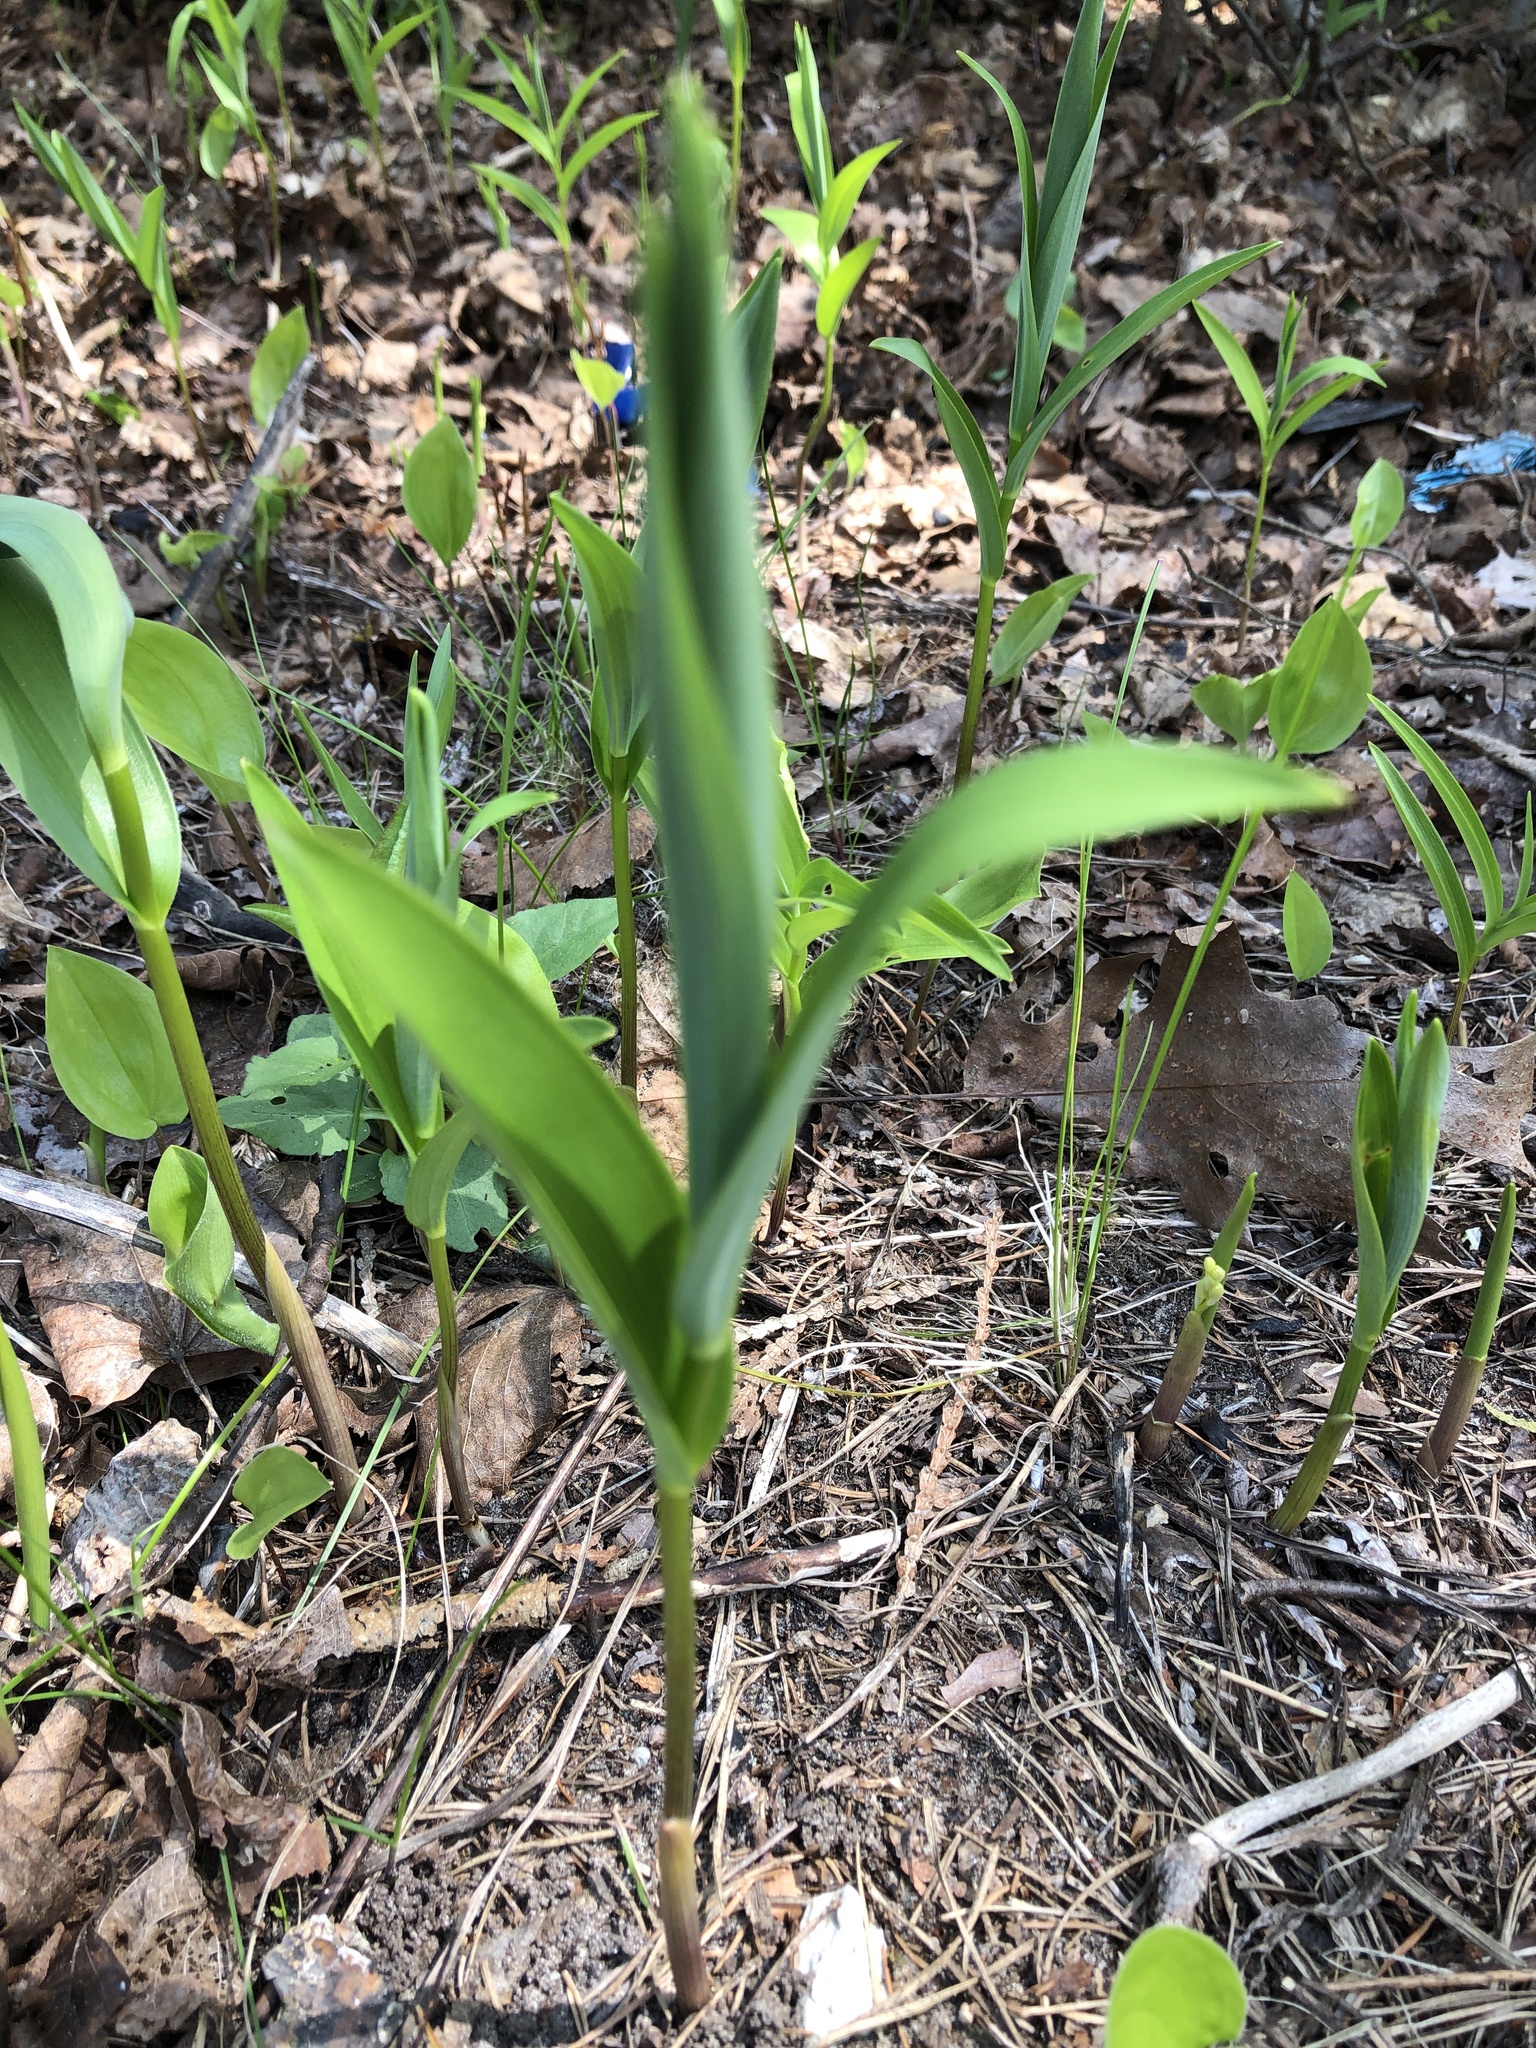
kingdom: Plantae
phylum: Tracheophyta
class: Liliopsida
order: Asparagales
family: Asparagaceae
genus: Maianthemum
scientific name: Maianthemum stellatum
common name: Little false solomon's seal
